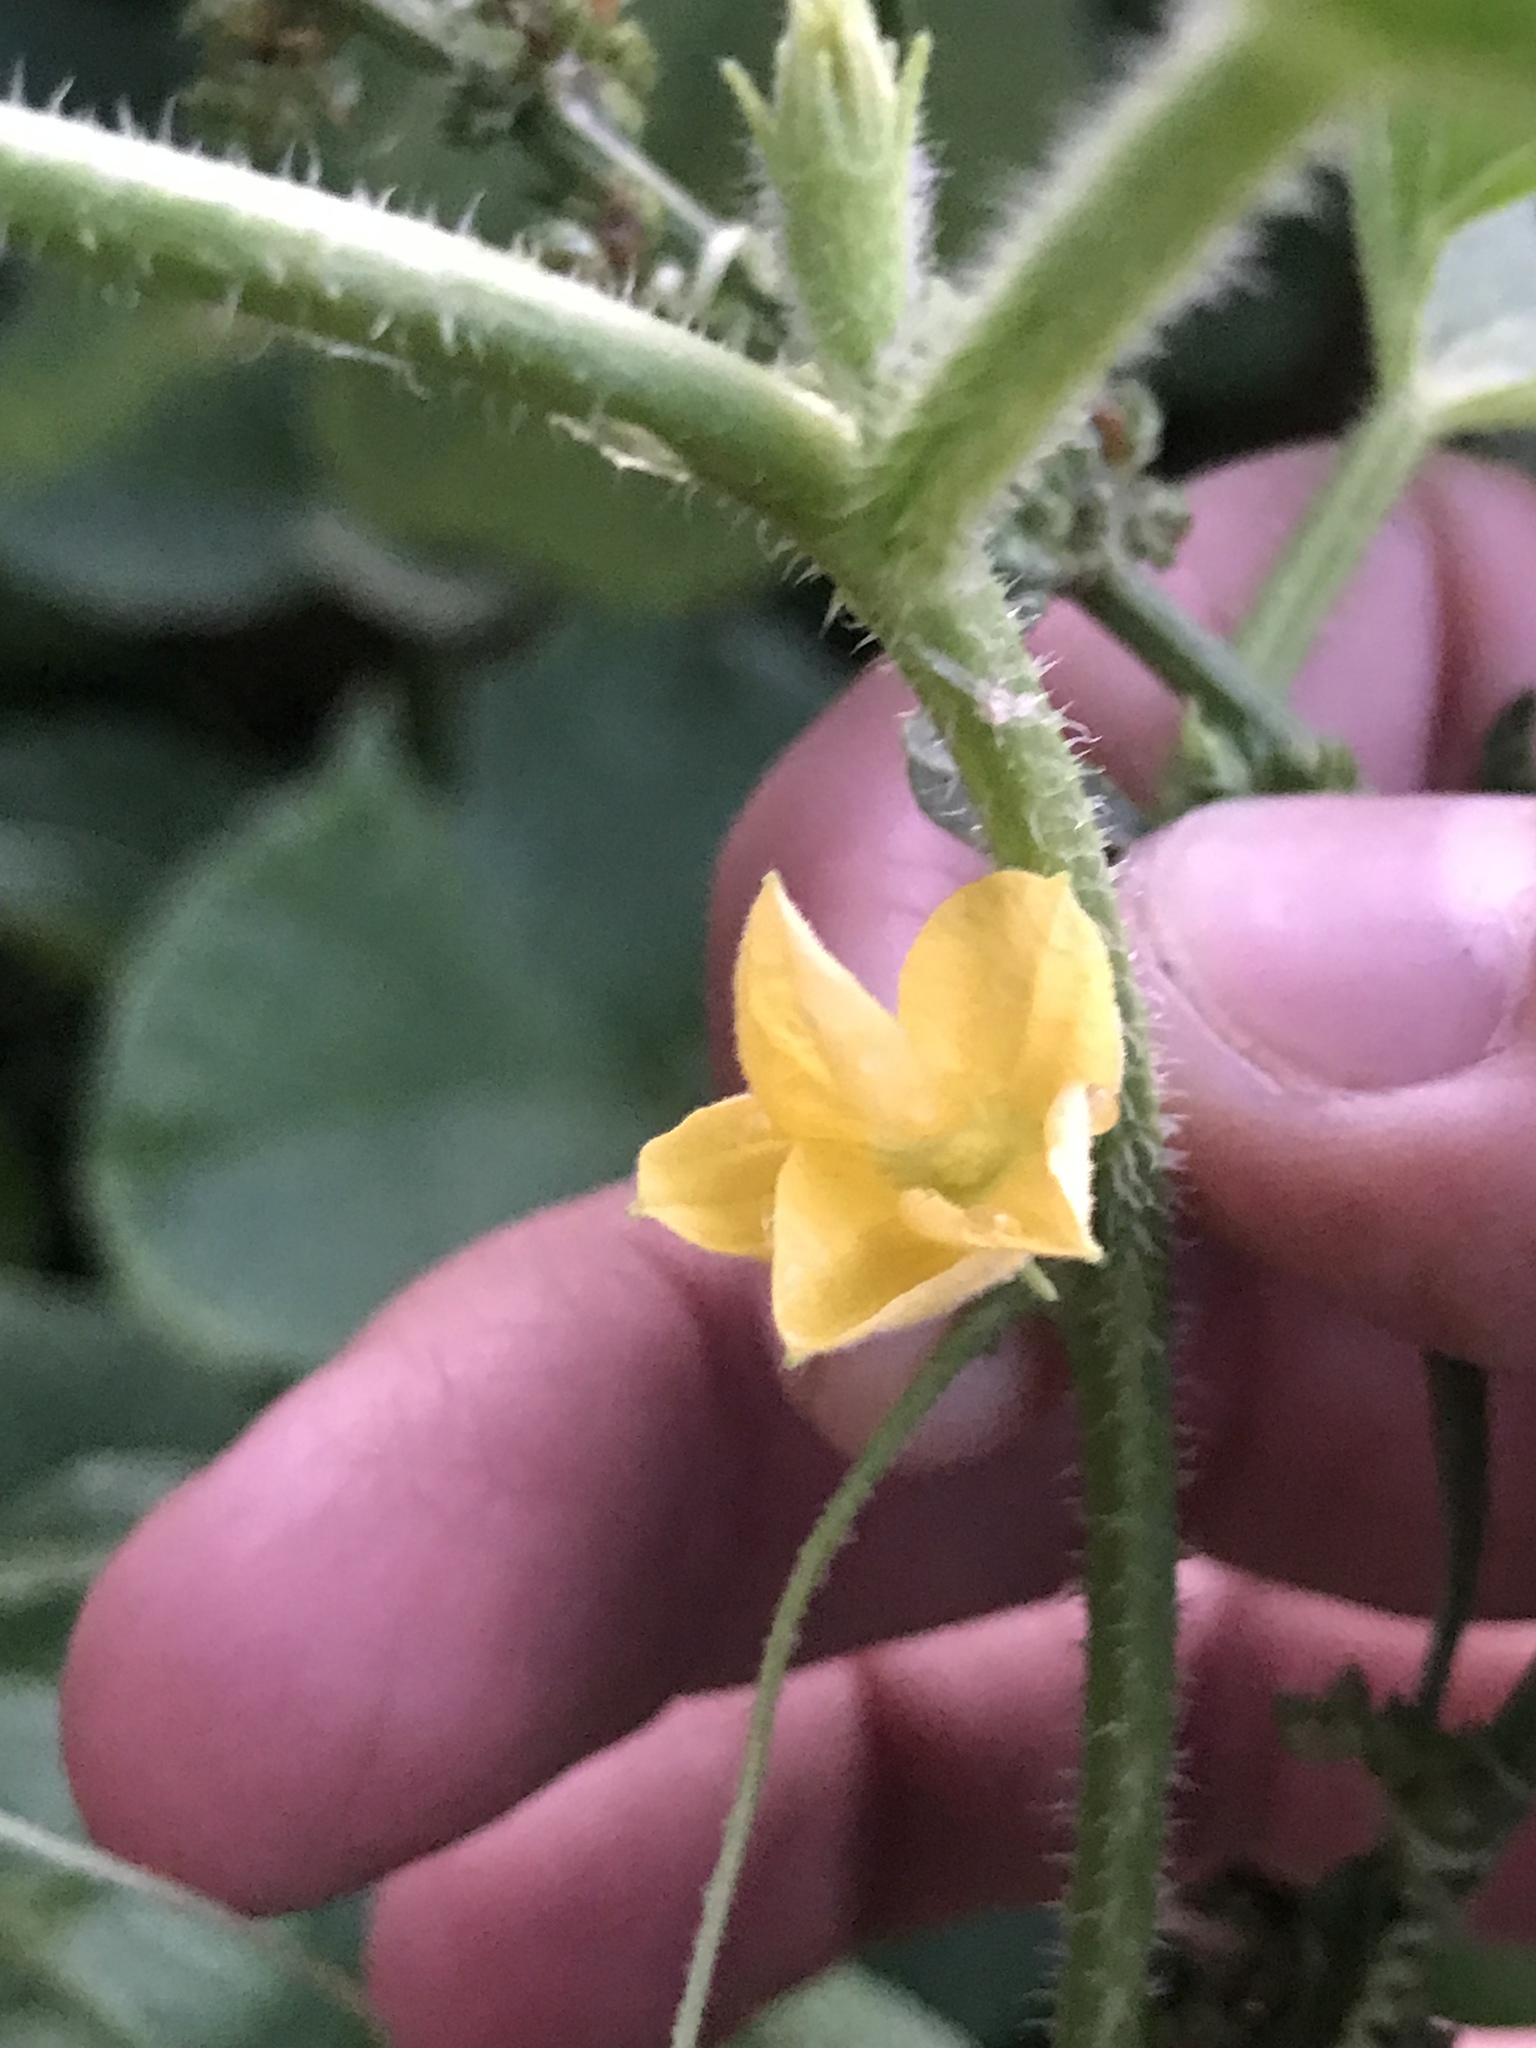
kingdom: Plantae
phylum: Tracheophyta
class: Magnoliopsida
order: Cucurbitales
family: Cucurbitaceae
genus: Cucumis
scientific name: Cucumis melo
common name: Melon
